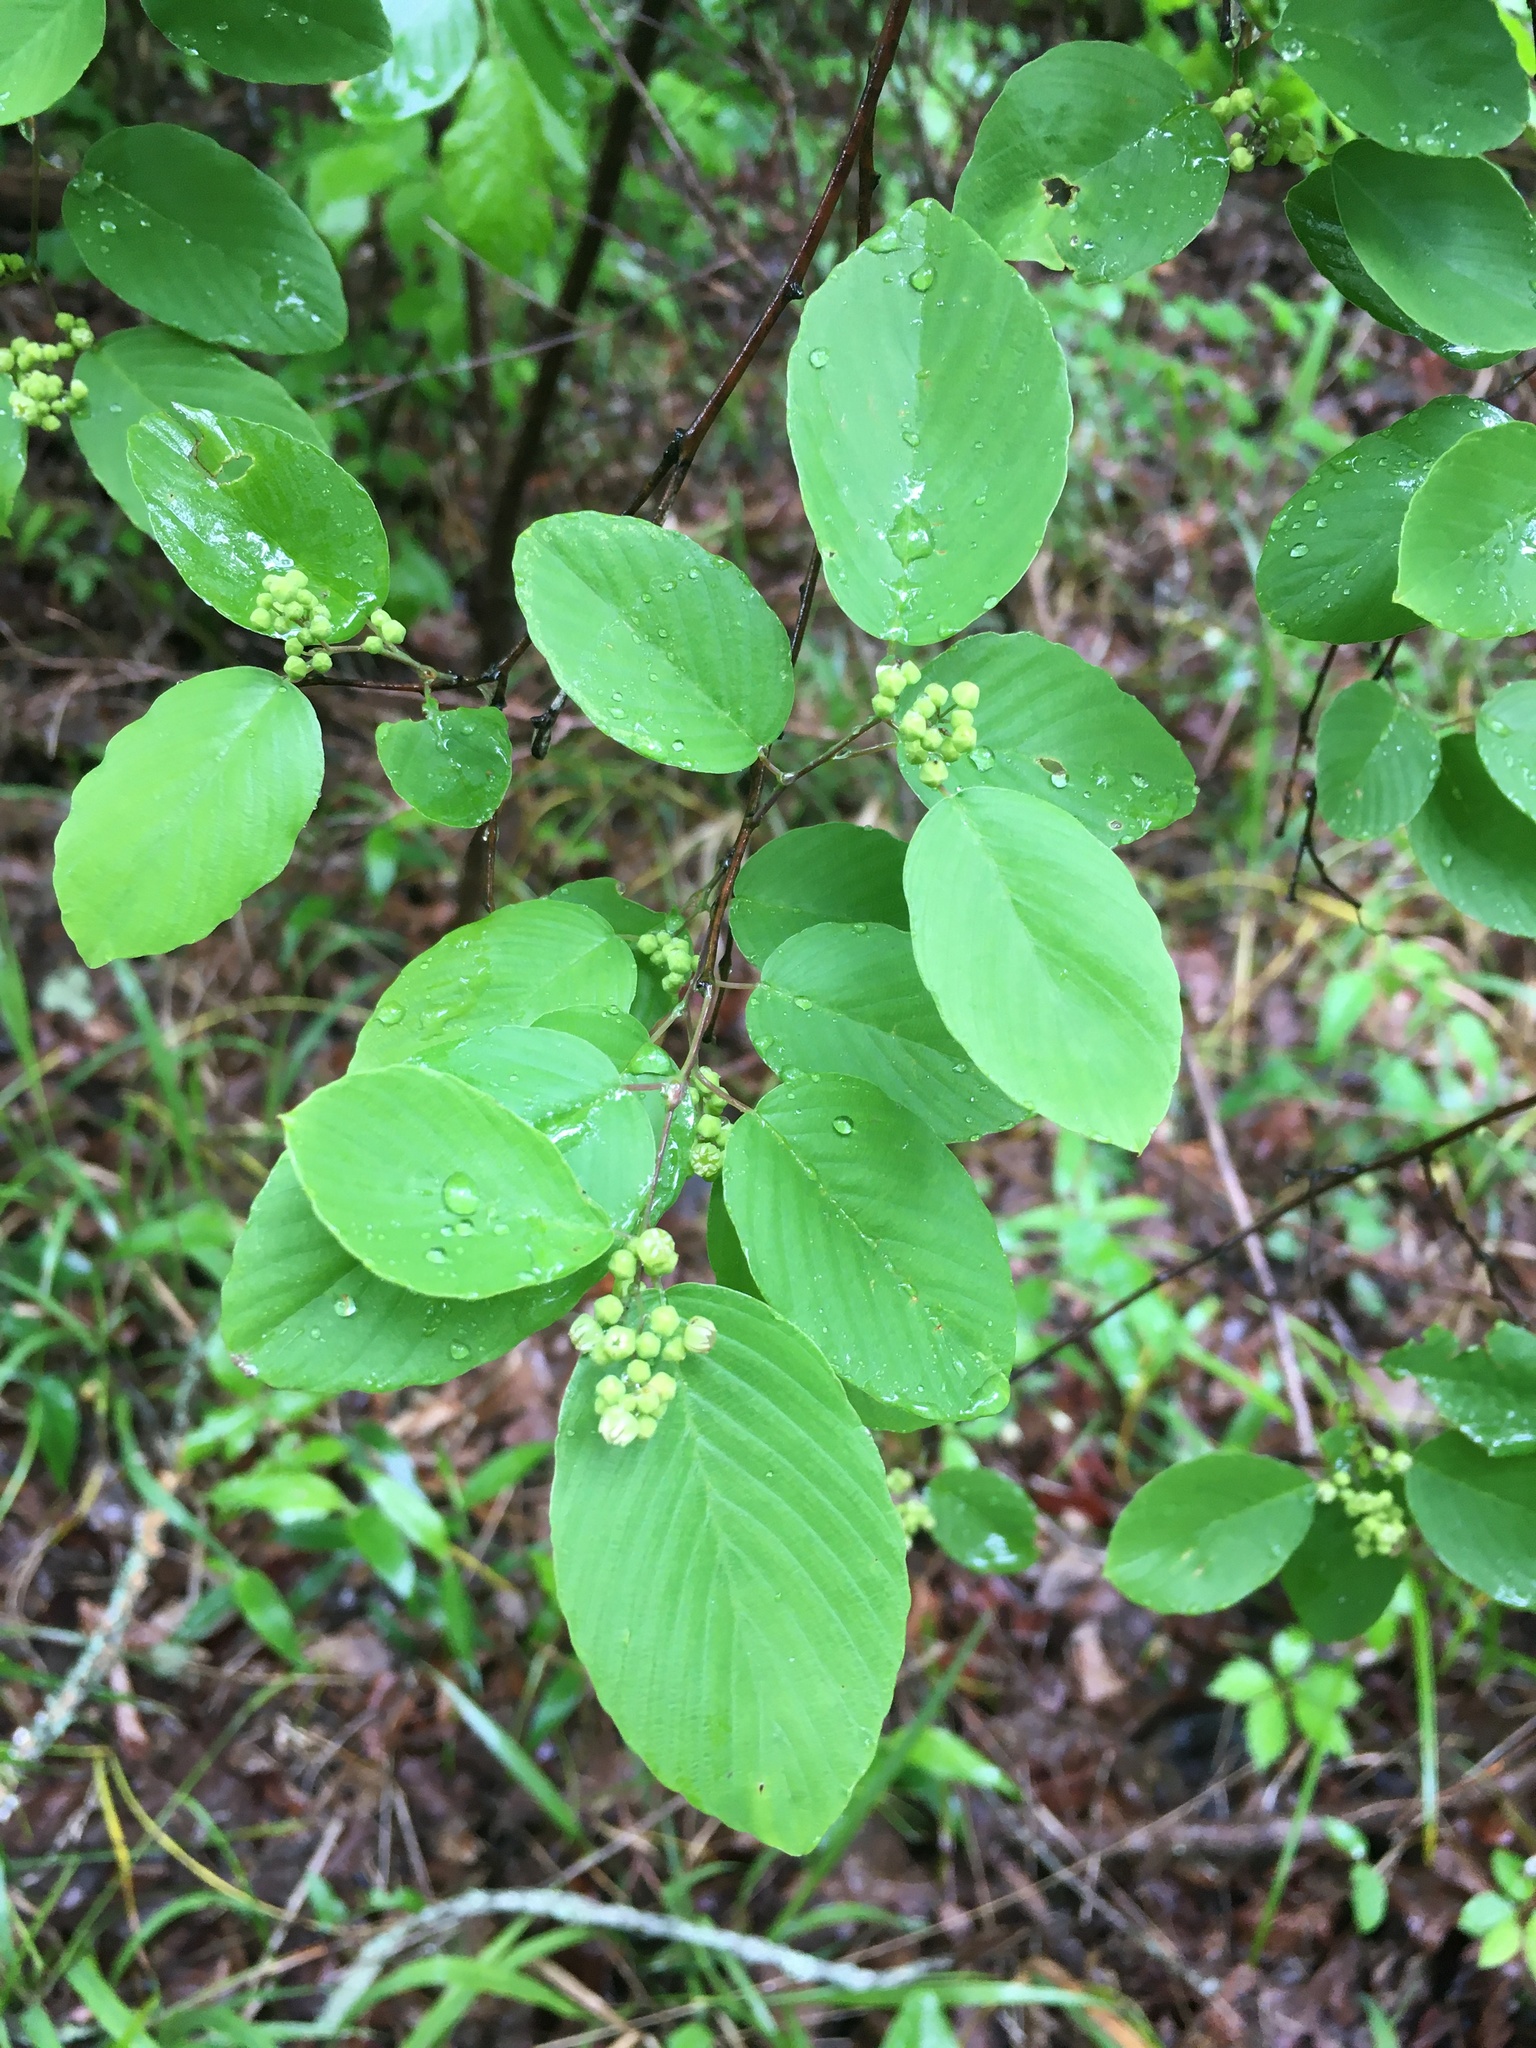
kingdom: Plantae
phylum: Tracheophyta
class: Magnoliopsida
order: Rosales
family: Rhamnaceae
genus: Berchemia
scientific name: Berchemia scandens
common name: Supplejack
